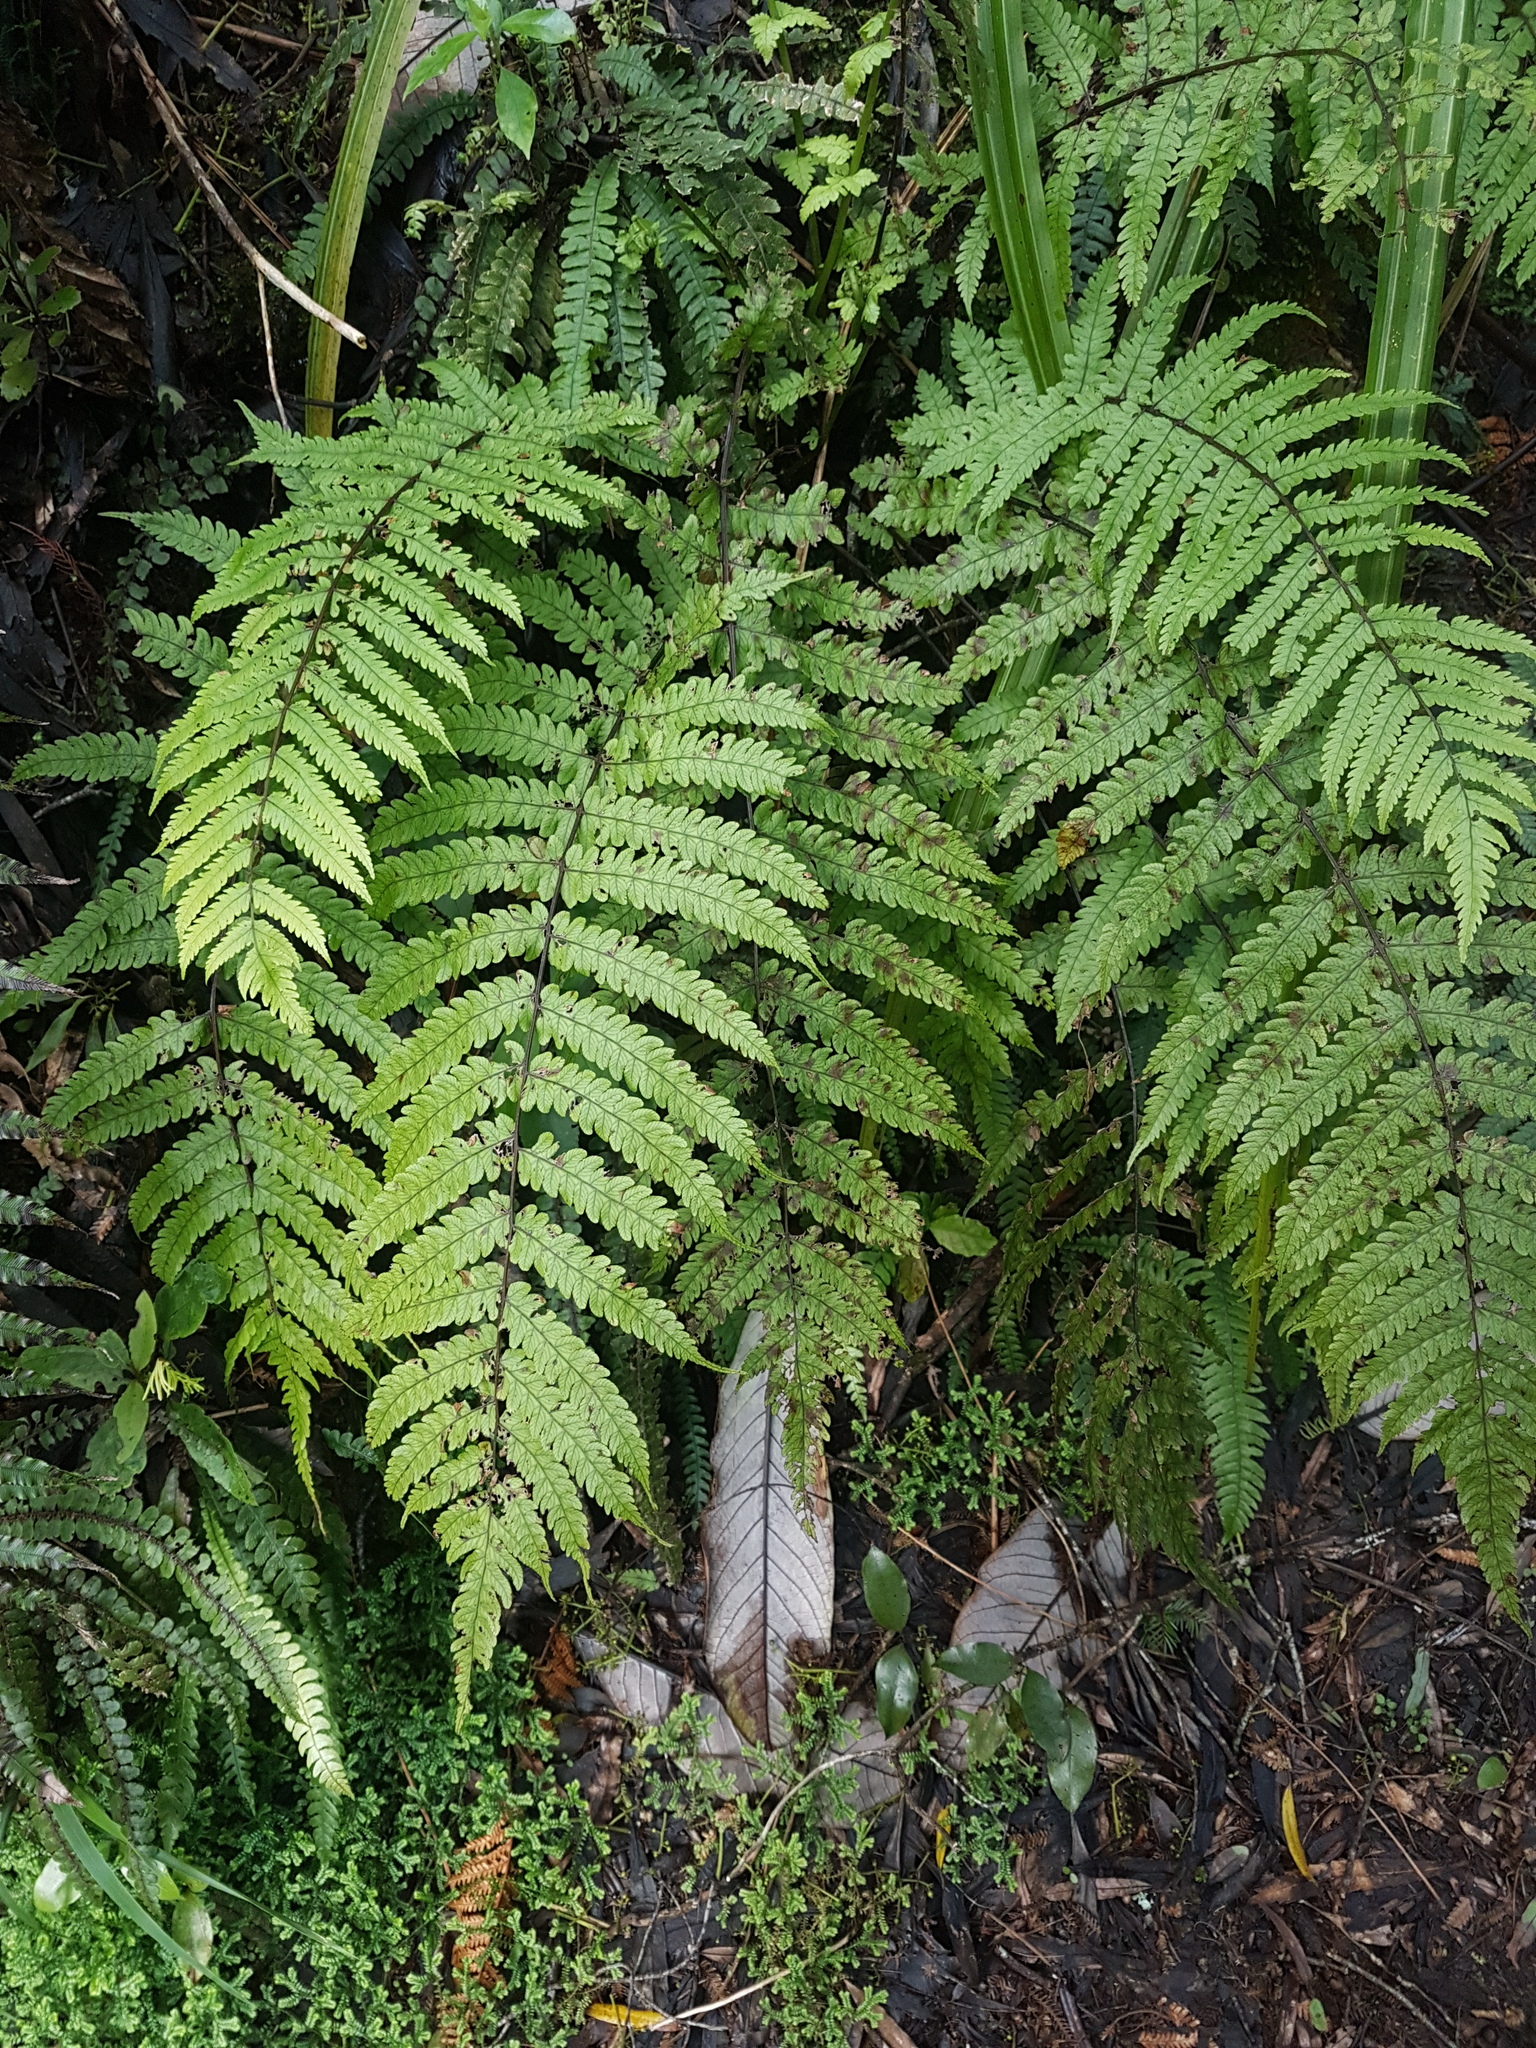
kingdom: Plantae
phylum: Tracheophyta
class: Polypodiopsida
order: Polypodiales
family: Thelypteridaceae
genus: Pakau
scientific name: Pakau pennigera
